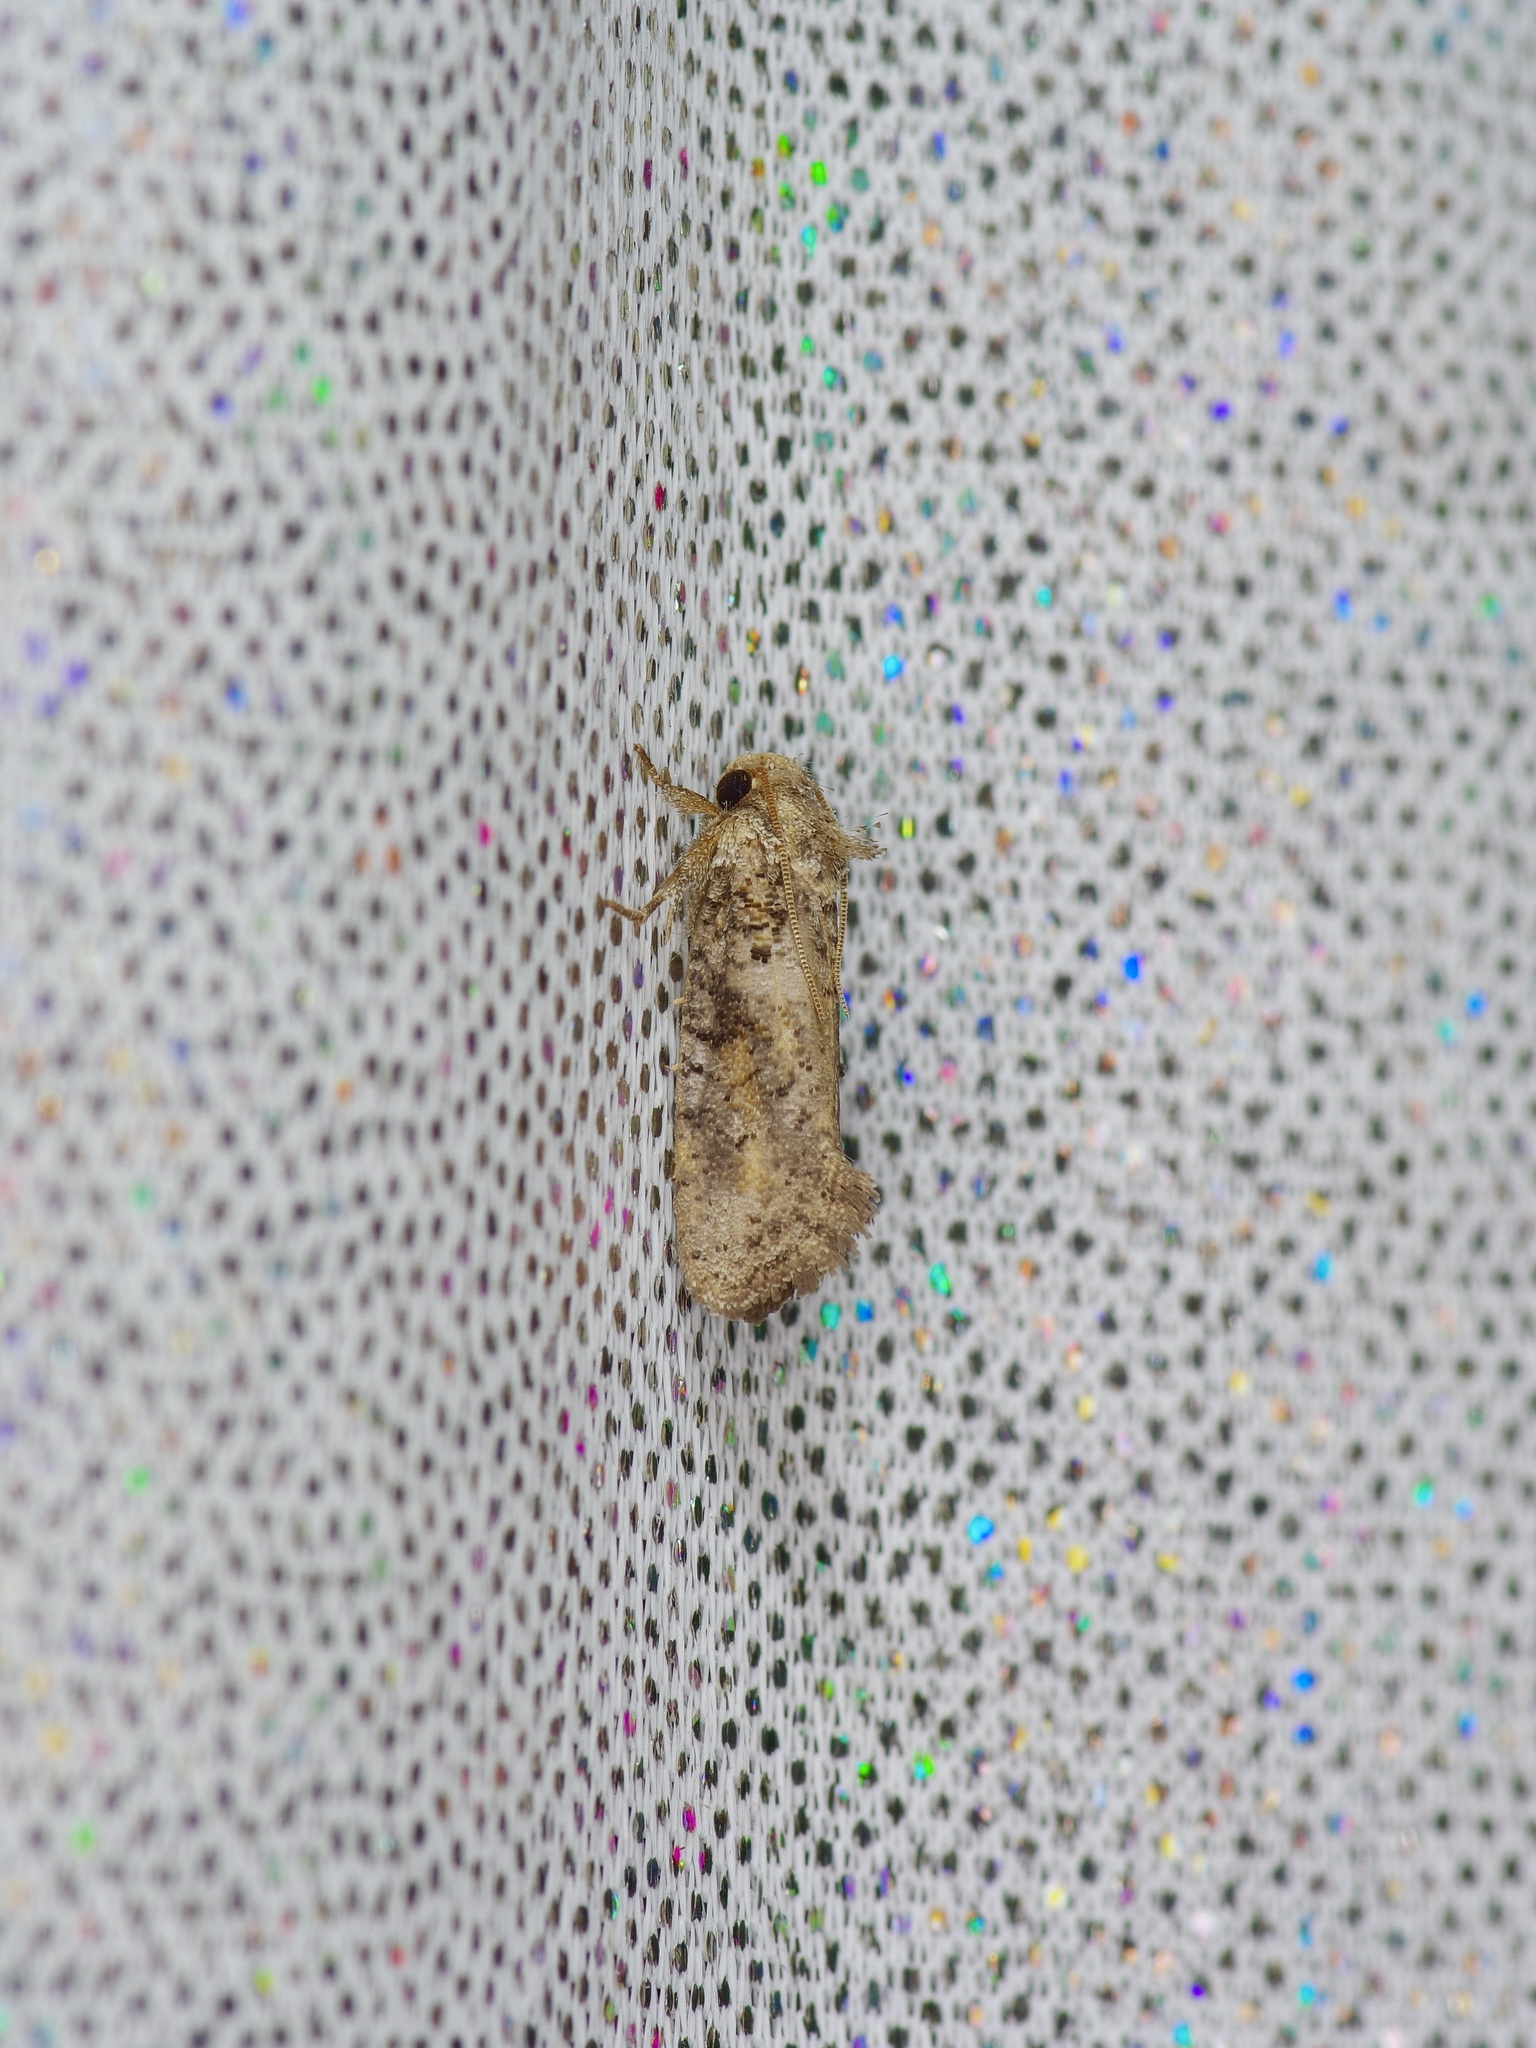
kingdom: Animalia
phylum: Arthropoda
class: Insecta
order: Lepidoptera
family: Tineidae
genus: Acrolophus
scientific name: Acrolophus piger
